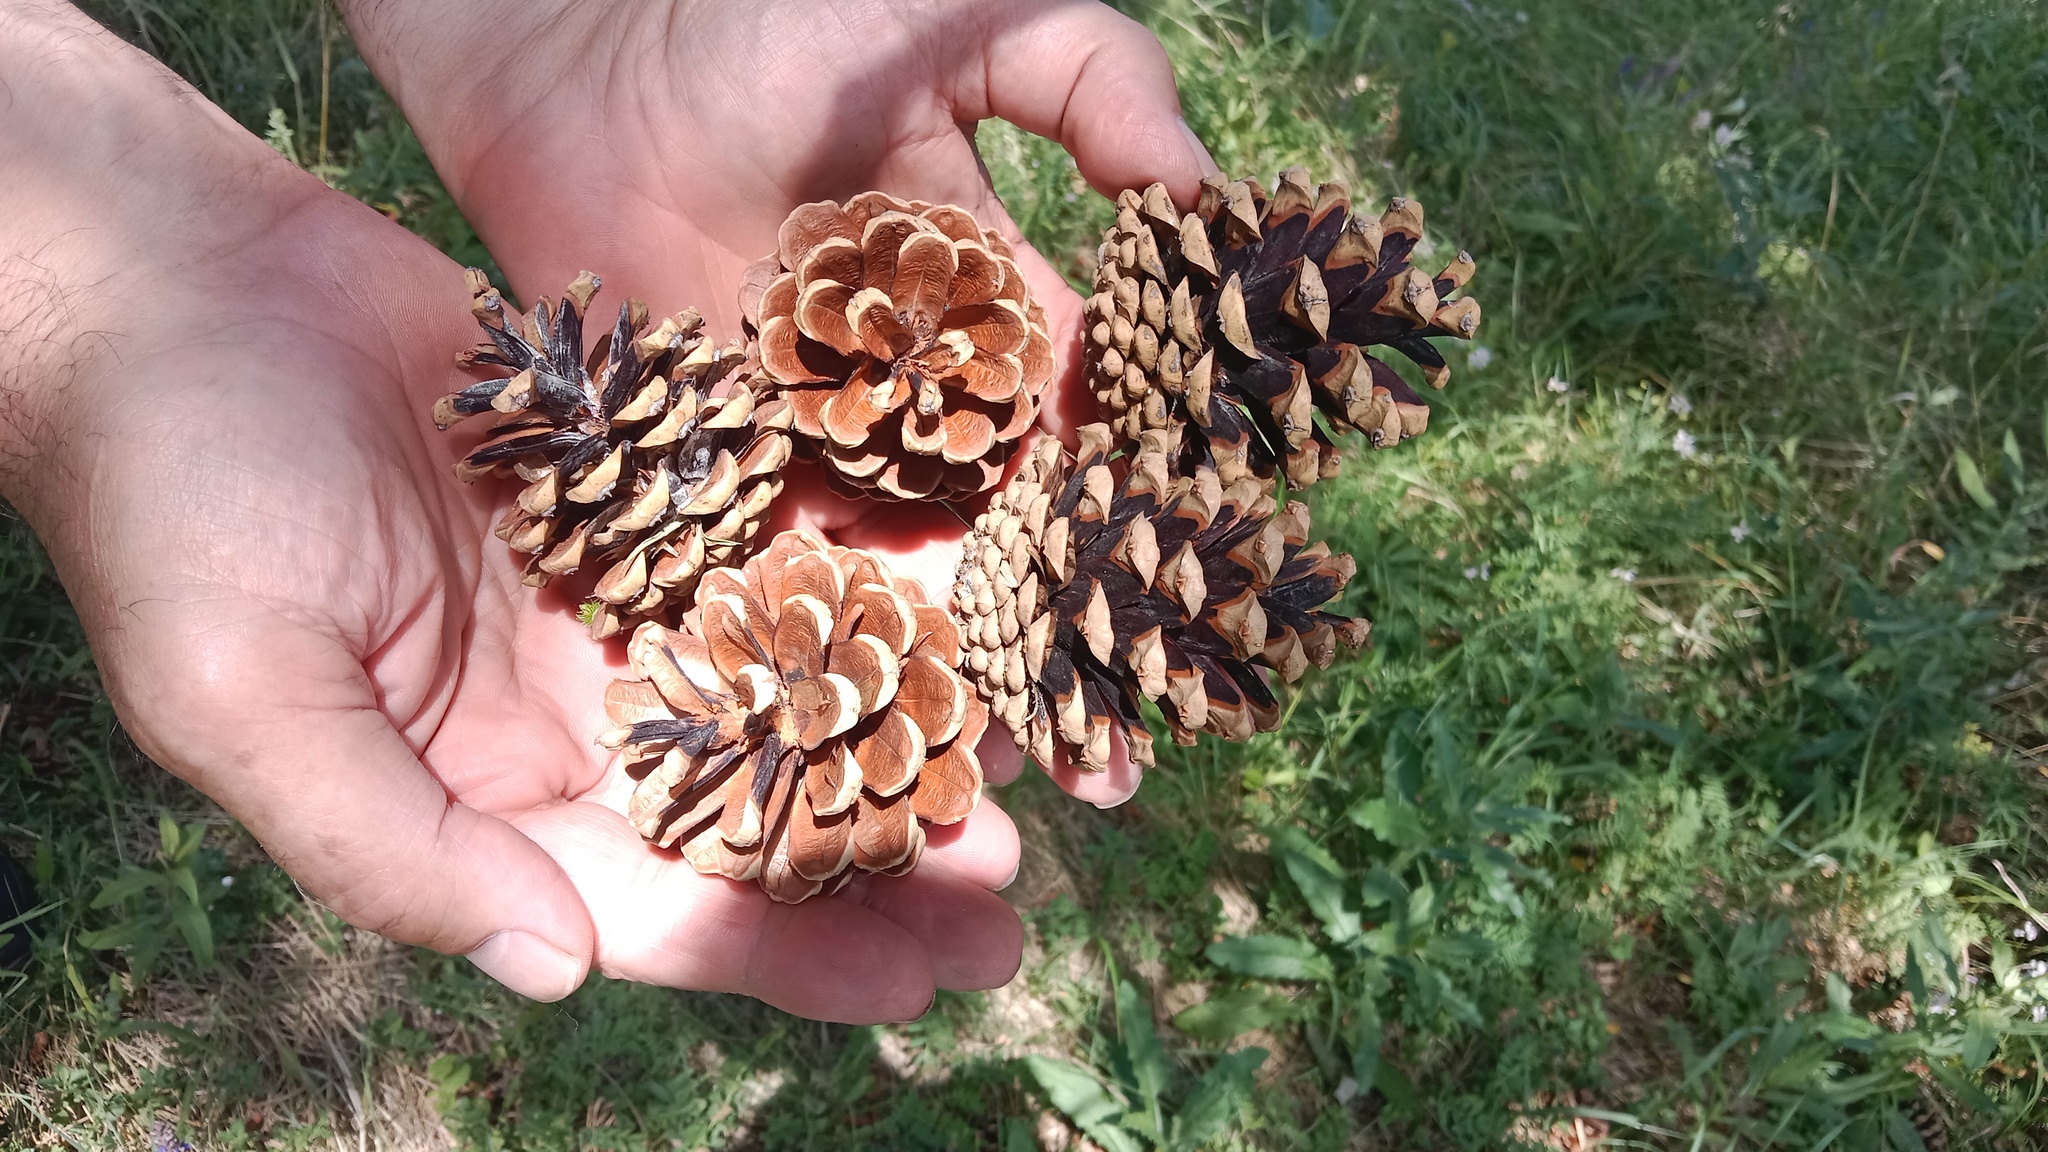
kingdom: Plantae
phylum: Tracheophyta
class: Pinopsida
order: Pinales
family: Pinaceae
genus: Pinus
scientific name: Pinus nigra
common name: Austrian pine
